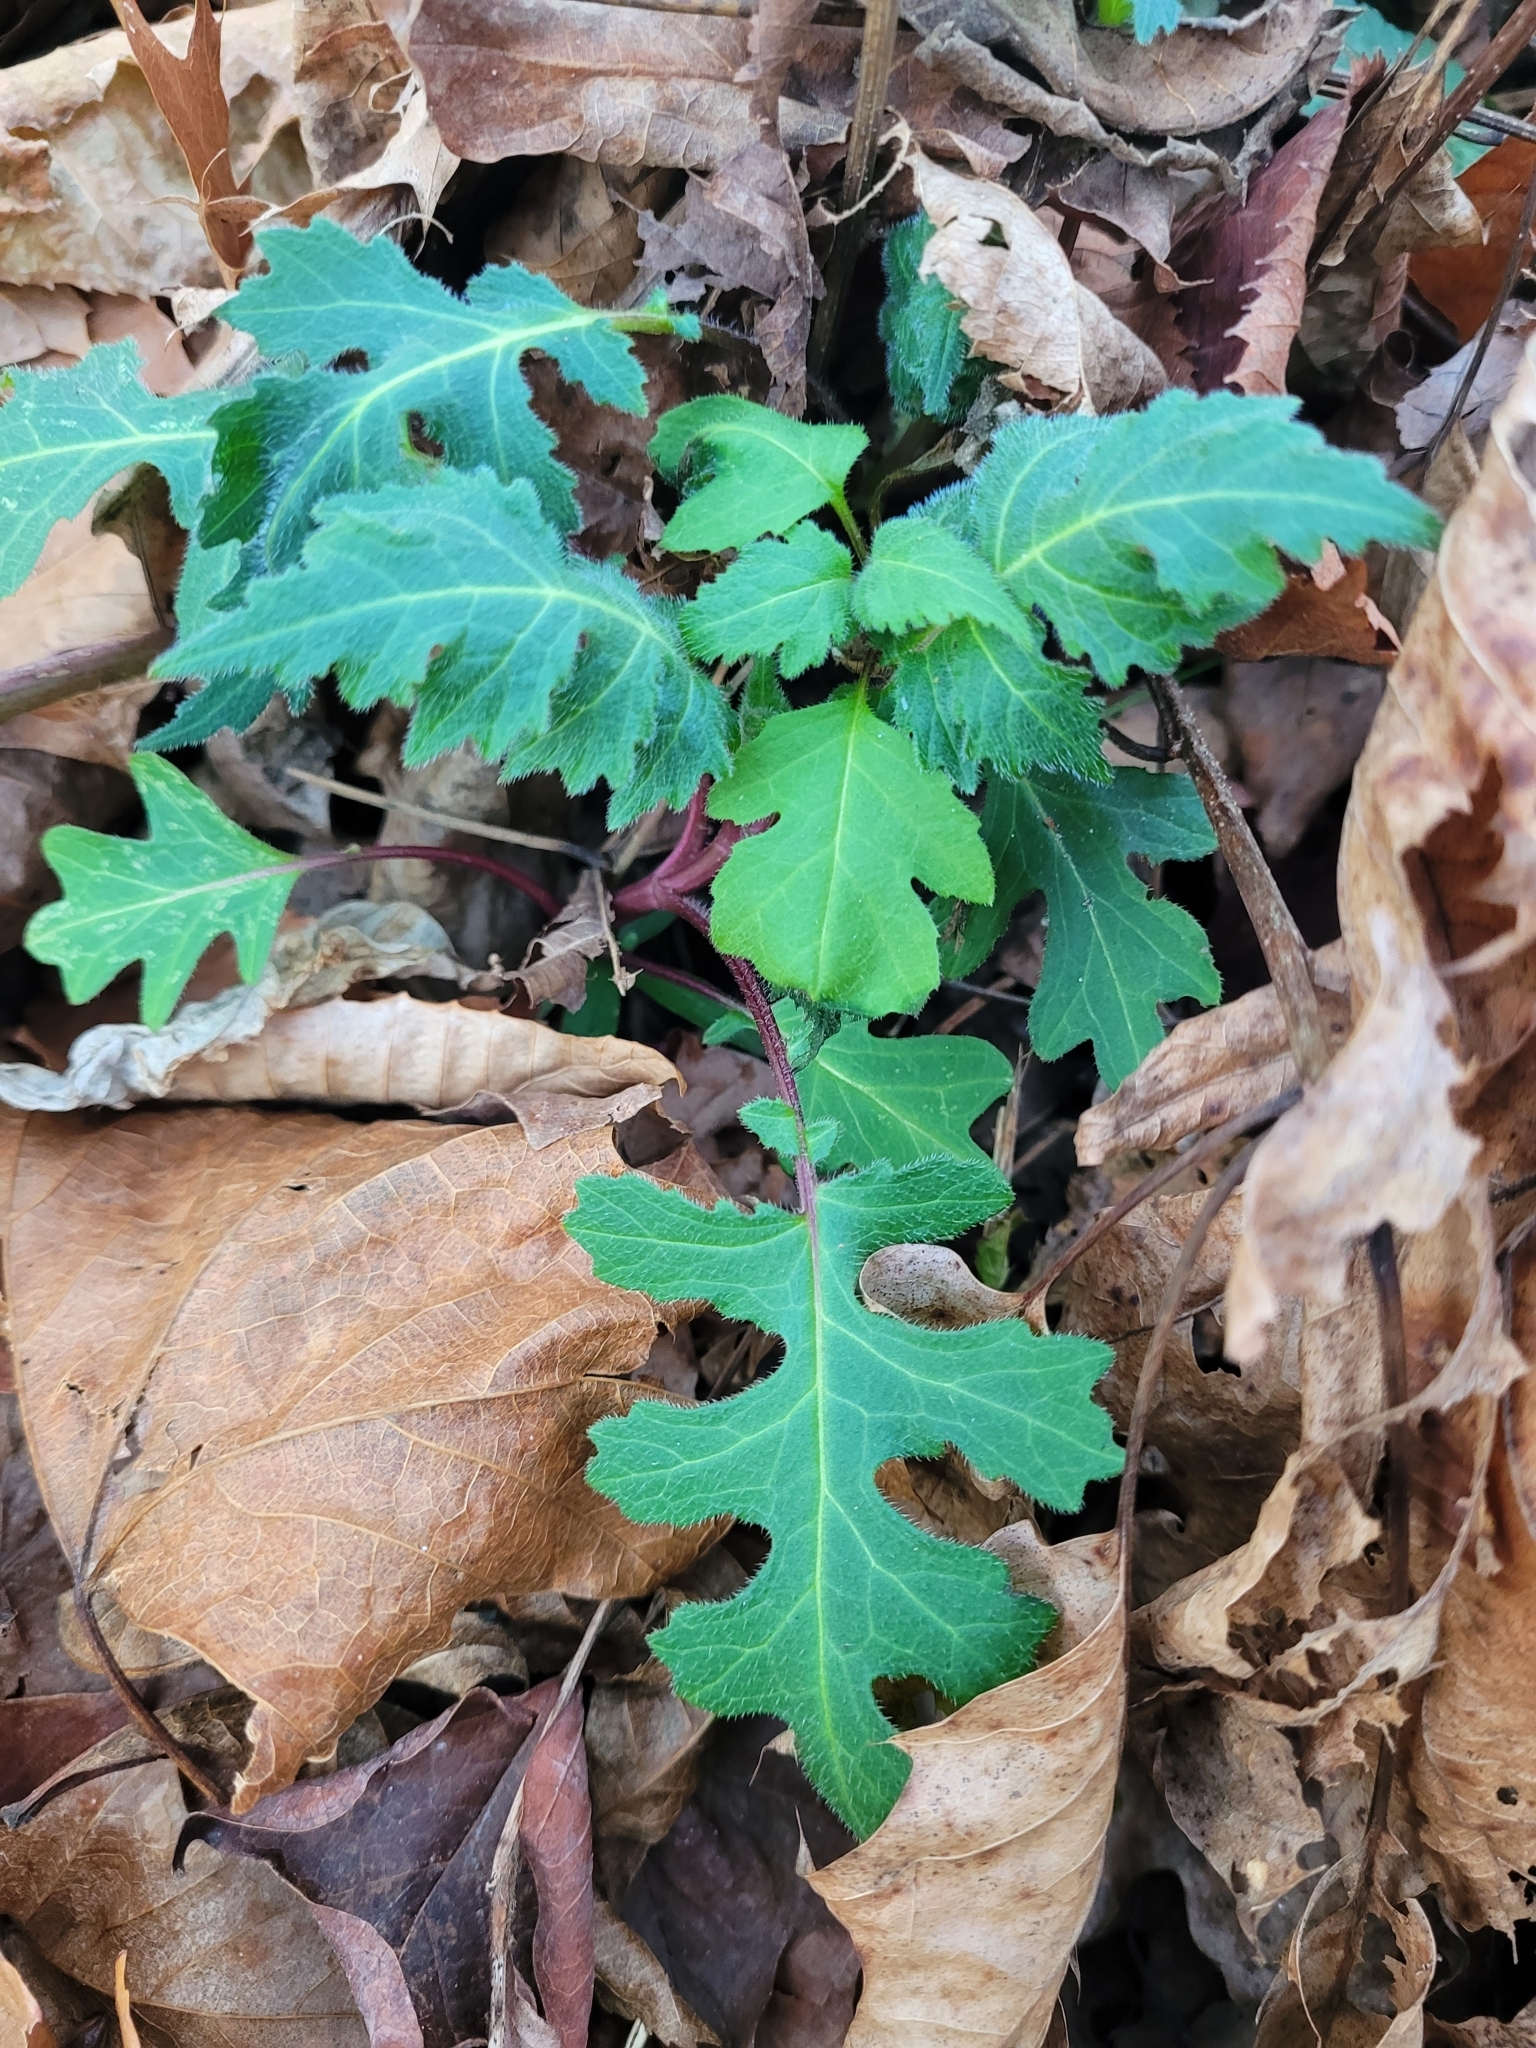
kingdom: Plantae
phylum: Tracheophyta
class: Magnoliopsida
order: Asterales
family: Asteraceae
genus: Polymnia
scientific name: Polymnia canadensis
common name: Pale-flowered leafcup
